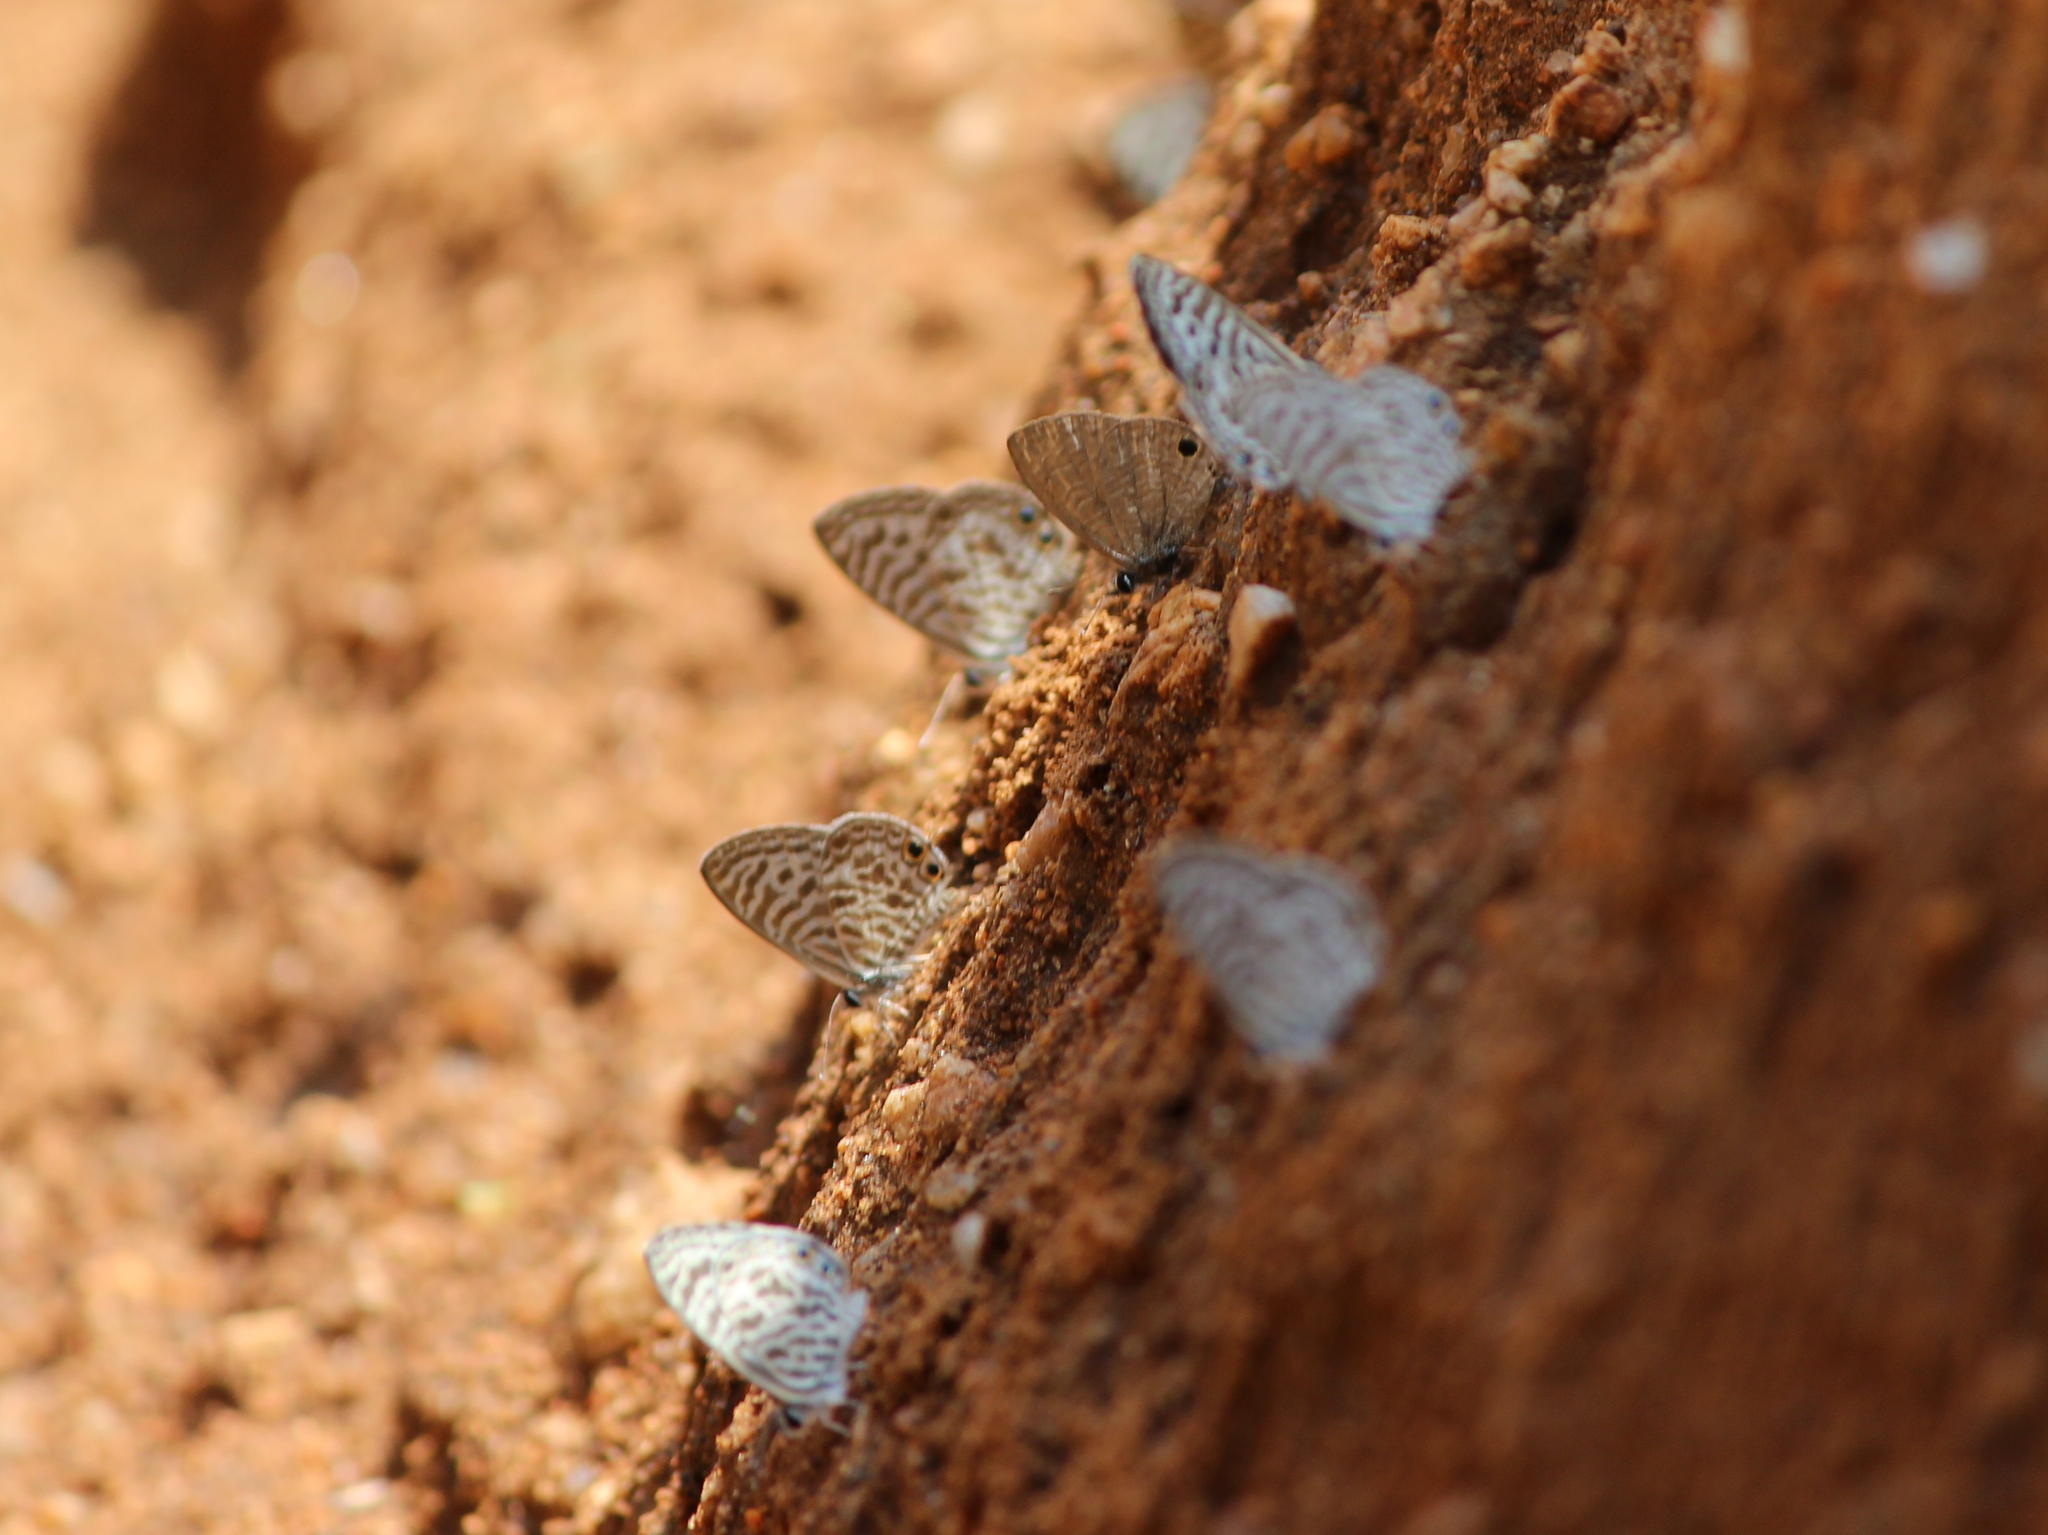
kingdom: Animalia
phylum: Arthropoda
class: Insecta
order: Lepidoptera
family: Lycaenidae
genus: Leptotes
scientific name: Leptotes plinius
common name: Zebra blue
